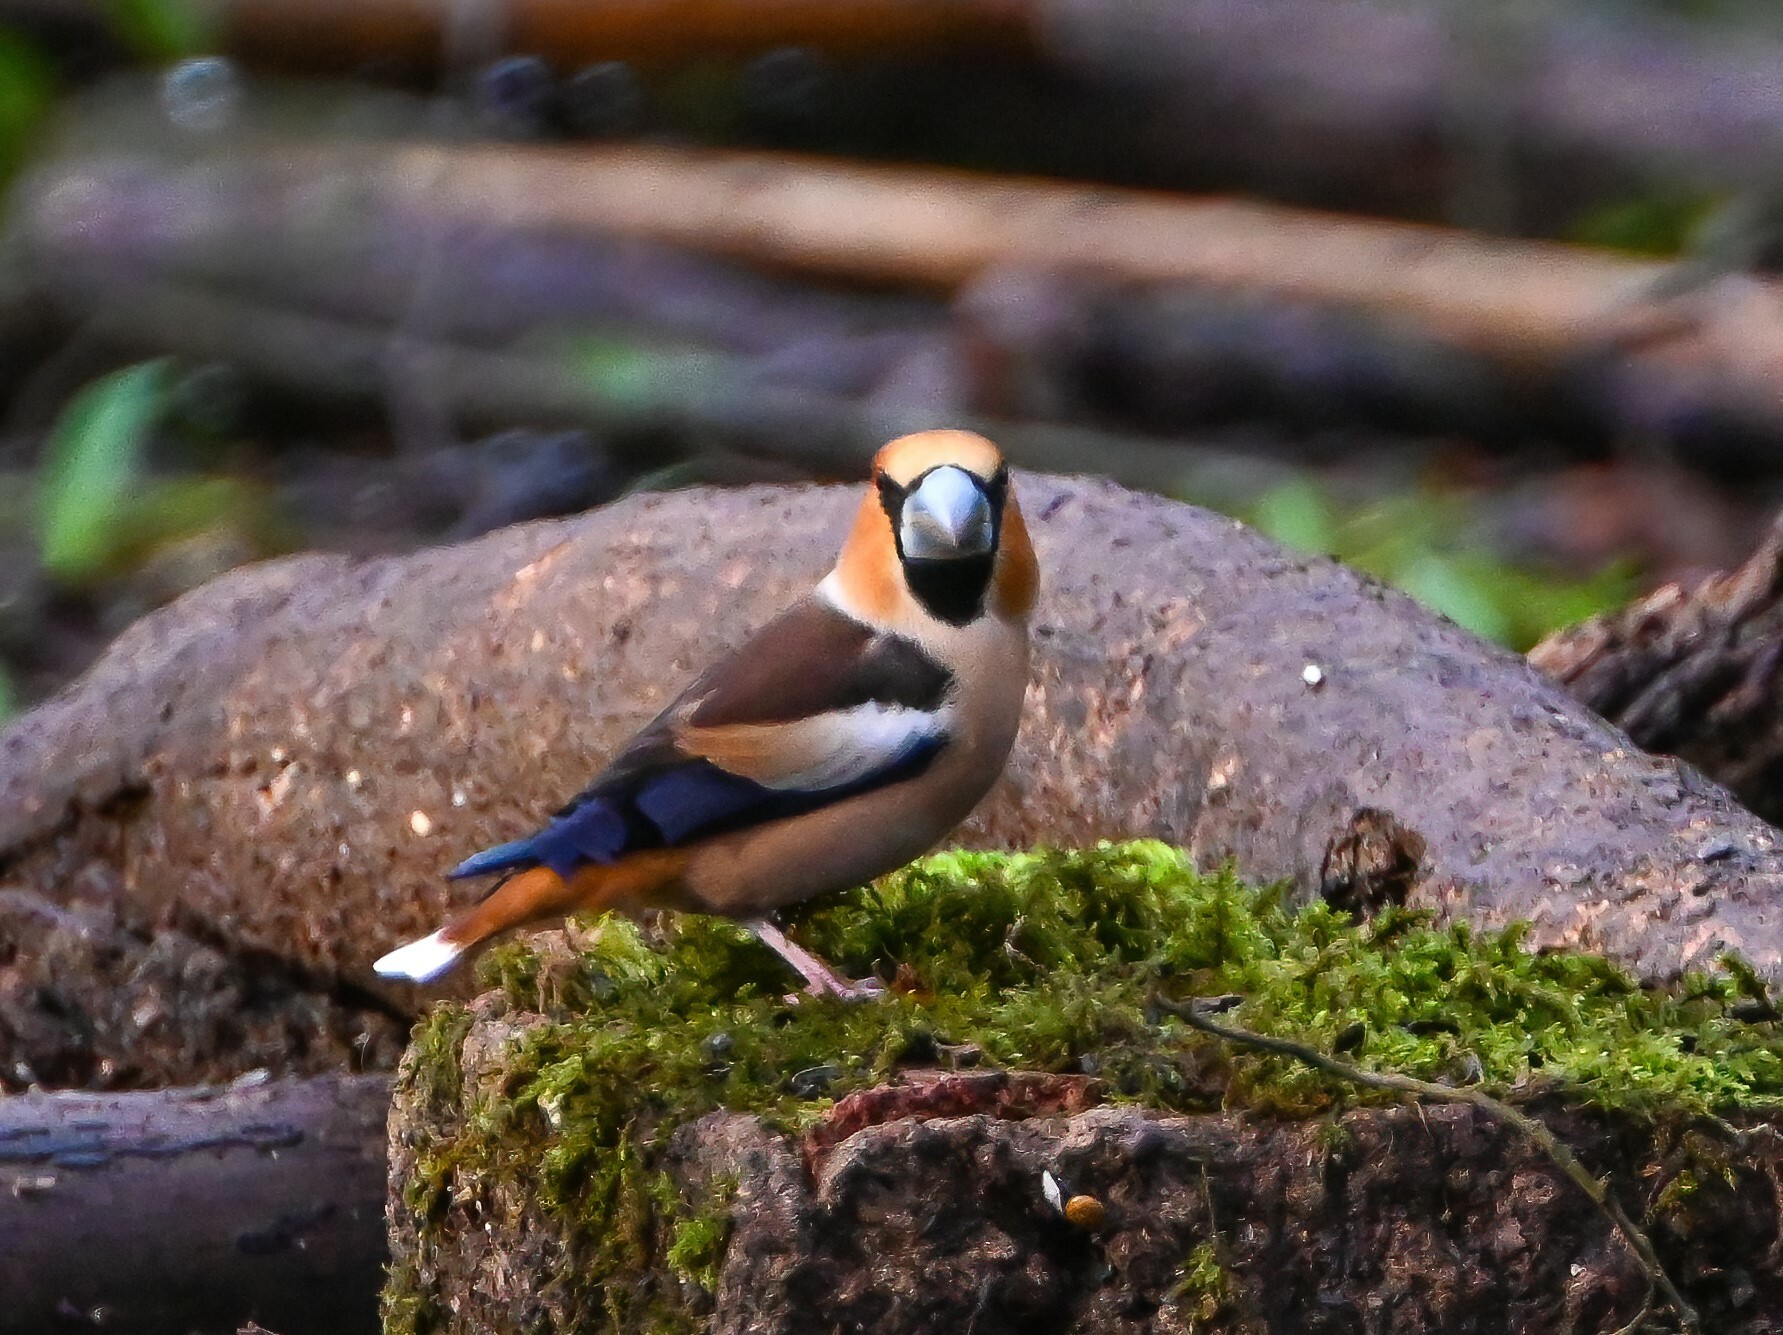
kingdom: Animalia
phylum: Chordata
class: Aves
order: Passeriformes
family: Fringillidae
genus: Coccothraustes
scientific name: Coccothraustes coccothraustes
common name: Hawfinch
